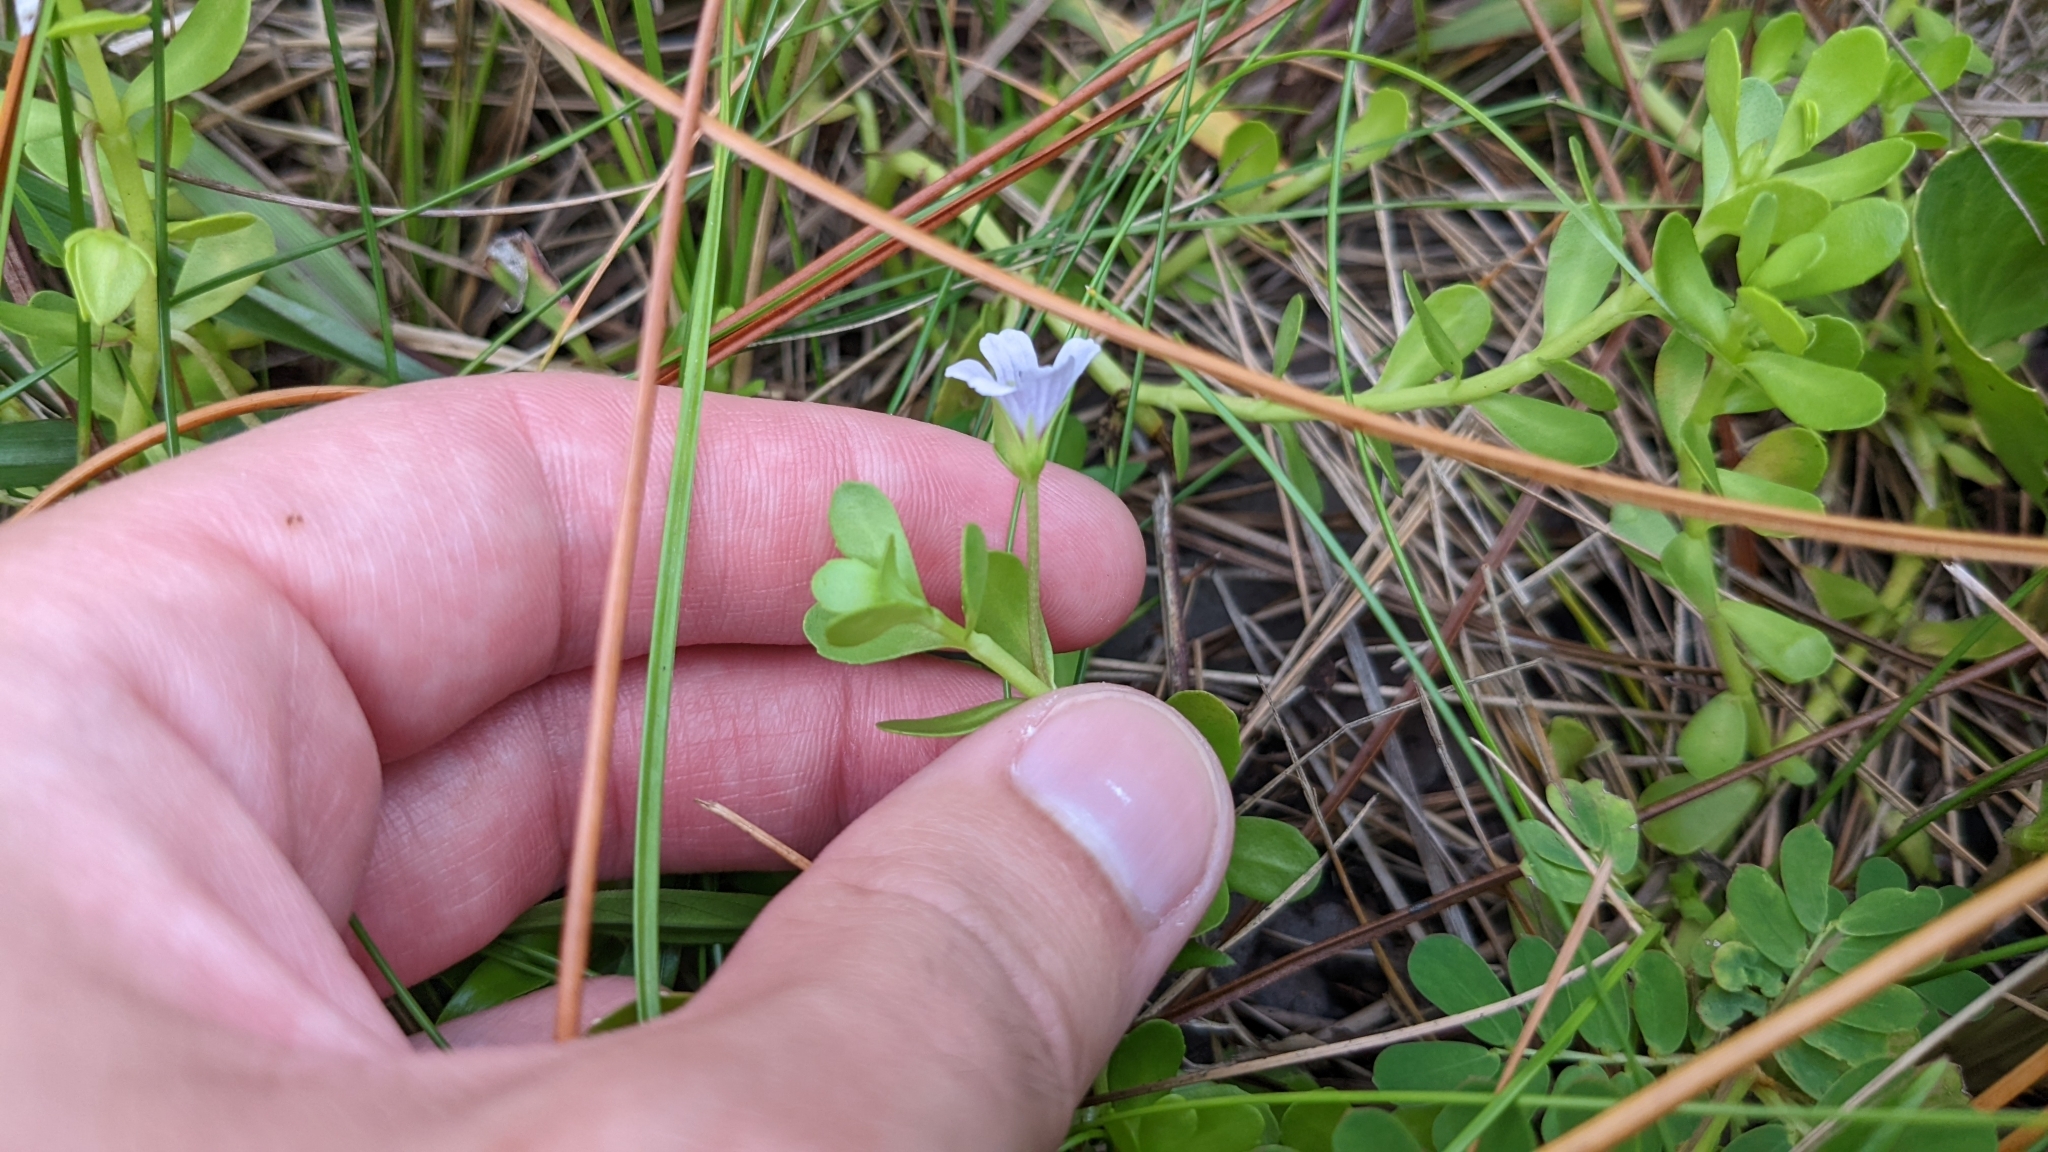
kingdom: Plantae
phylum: Tracheophyta
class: Magnoliopsida
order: Lamiales
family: Plantaginaceae
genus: Bacopa
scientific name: Bacopa monnieri
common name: Indian-pennywort
